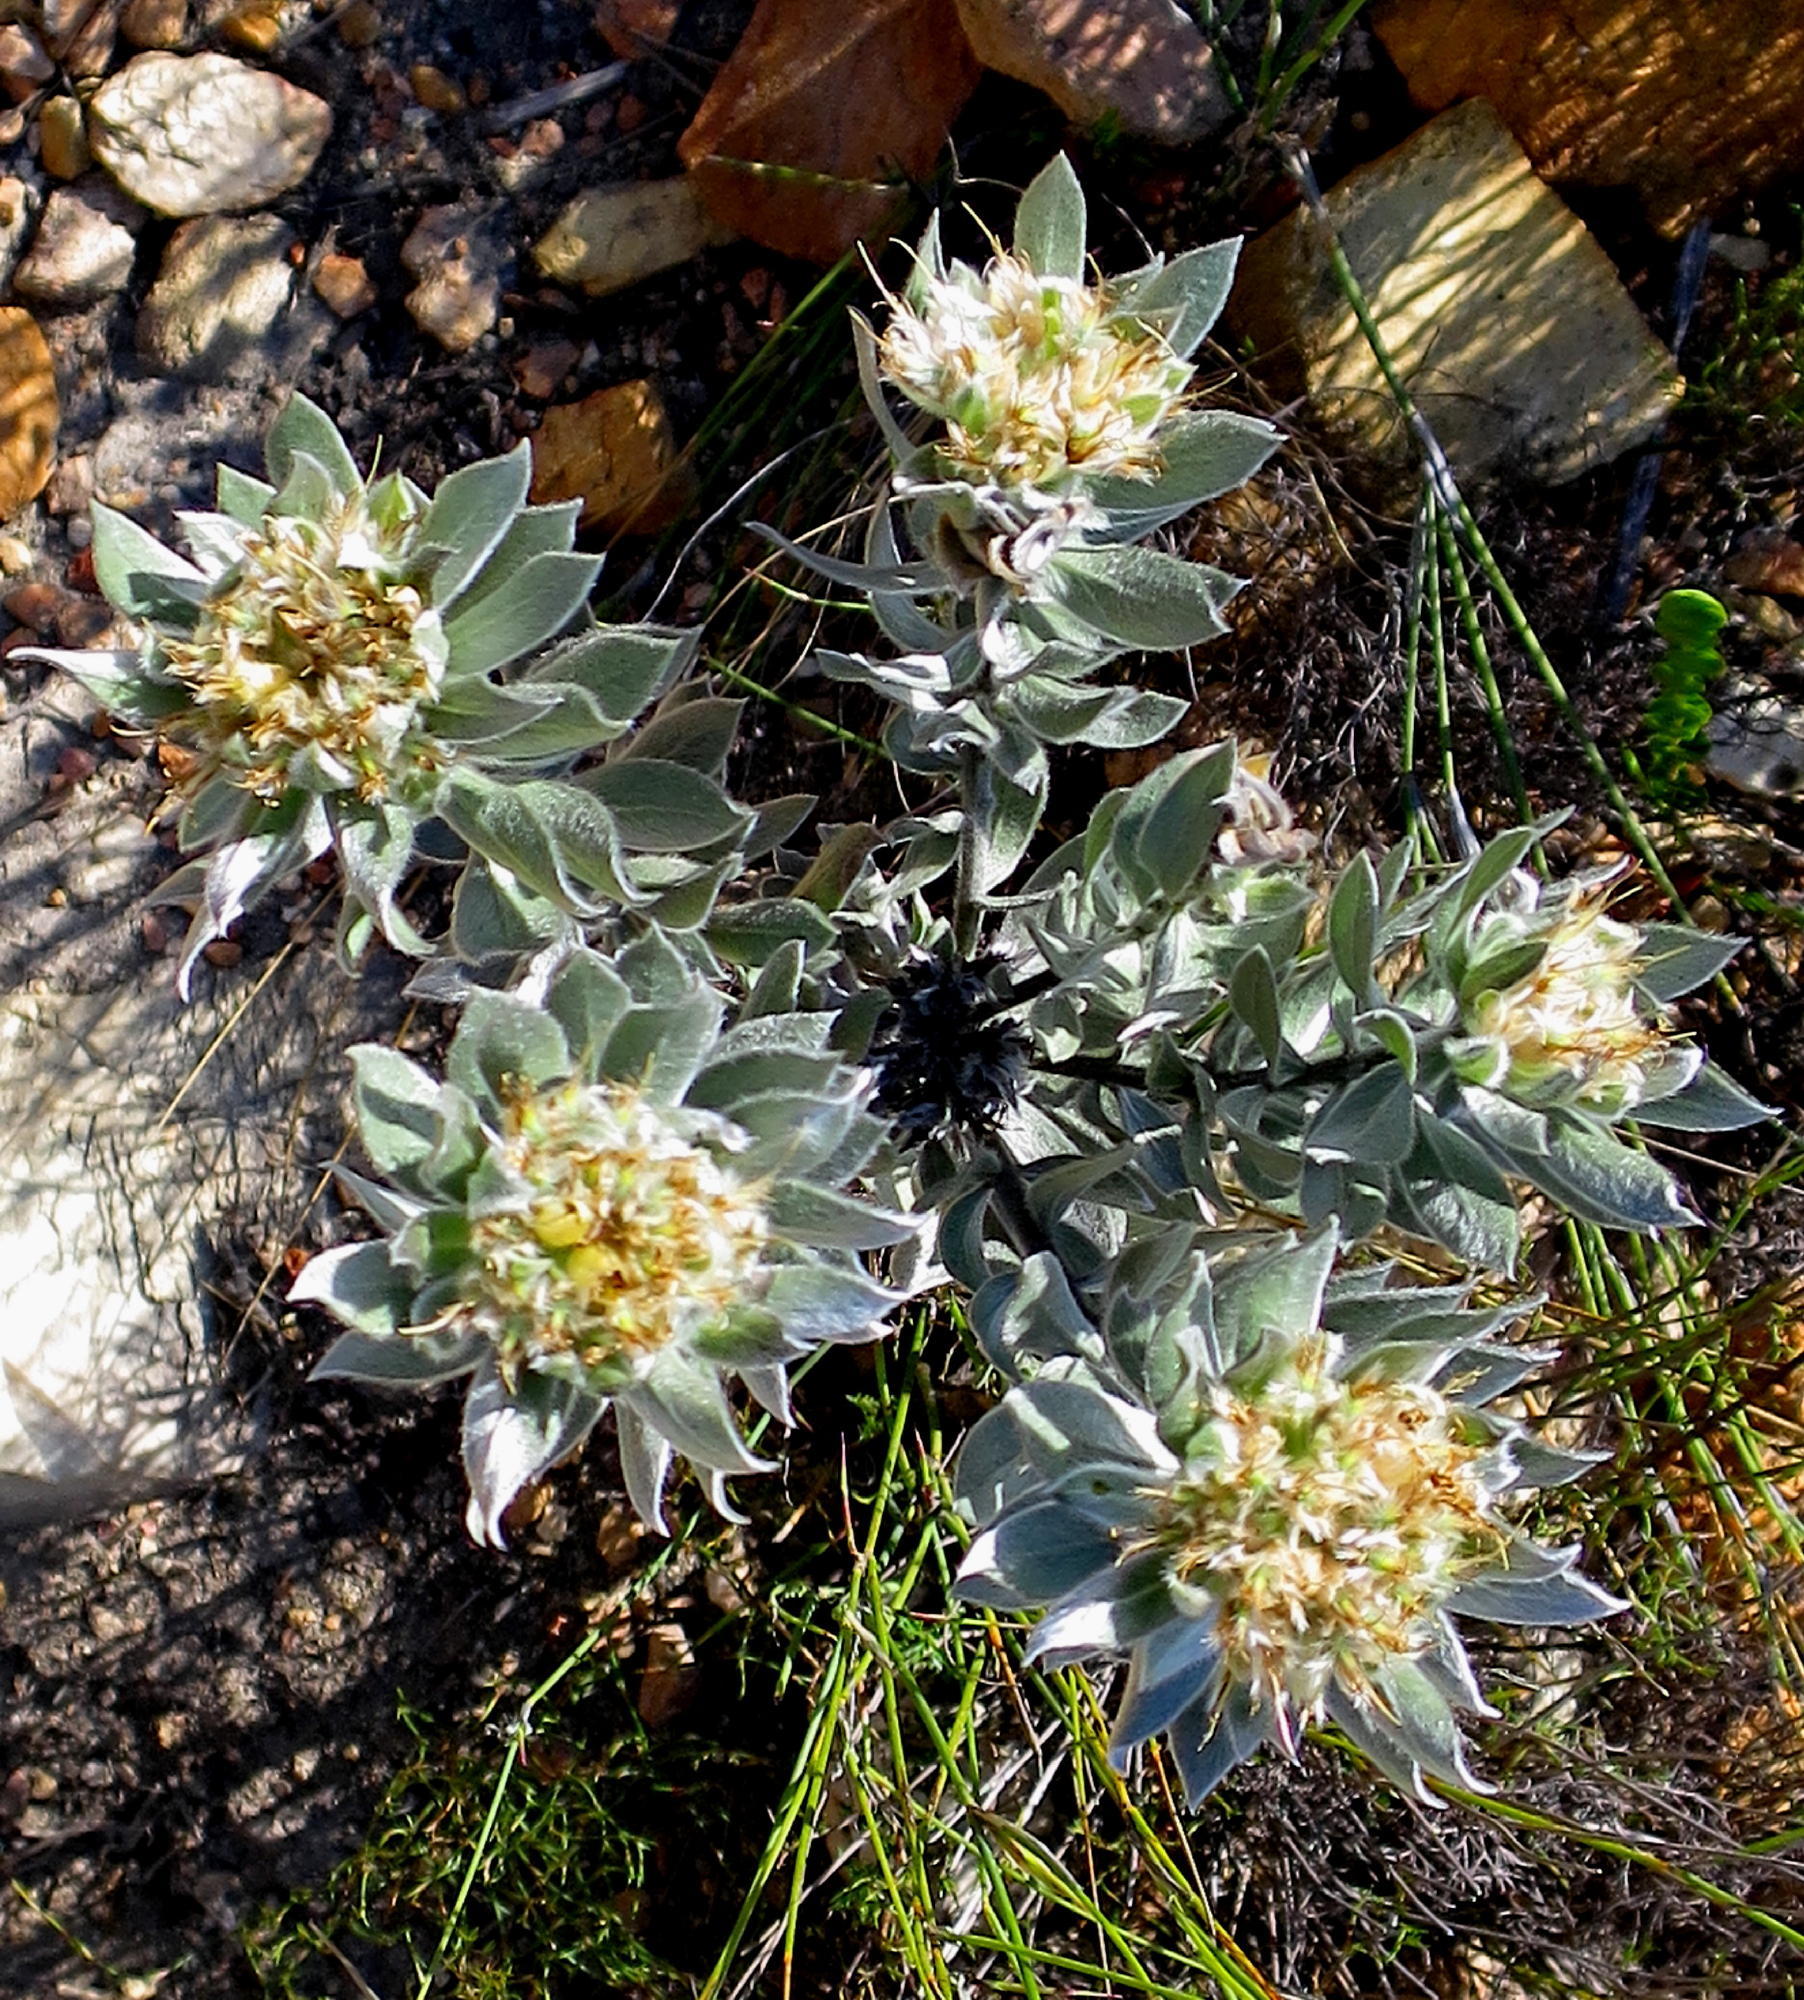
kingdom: Plantae
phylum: Tracheophyta
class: Magnoliopsida
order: Fabales
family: Fabaceae
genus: Xiphotheca
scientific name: Xiphotheca fruticosa
